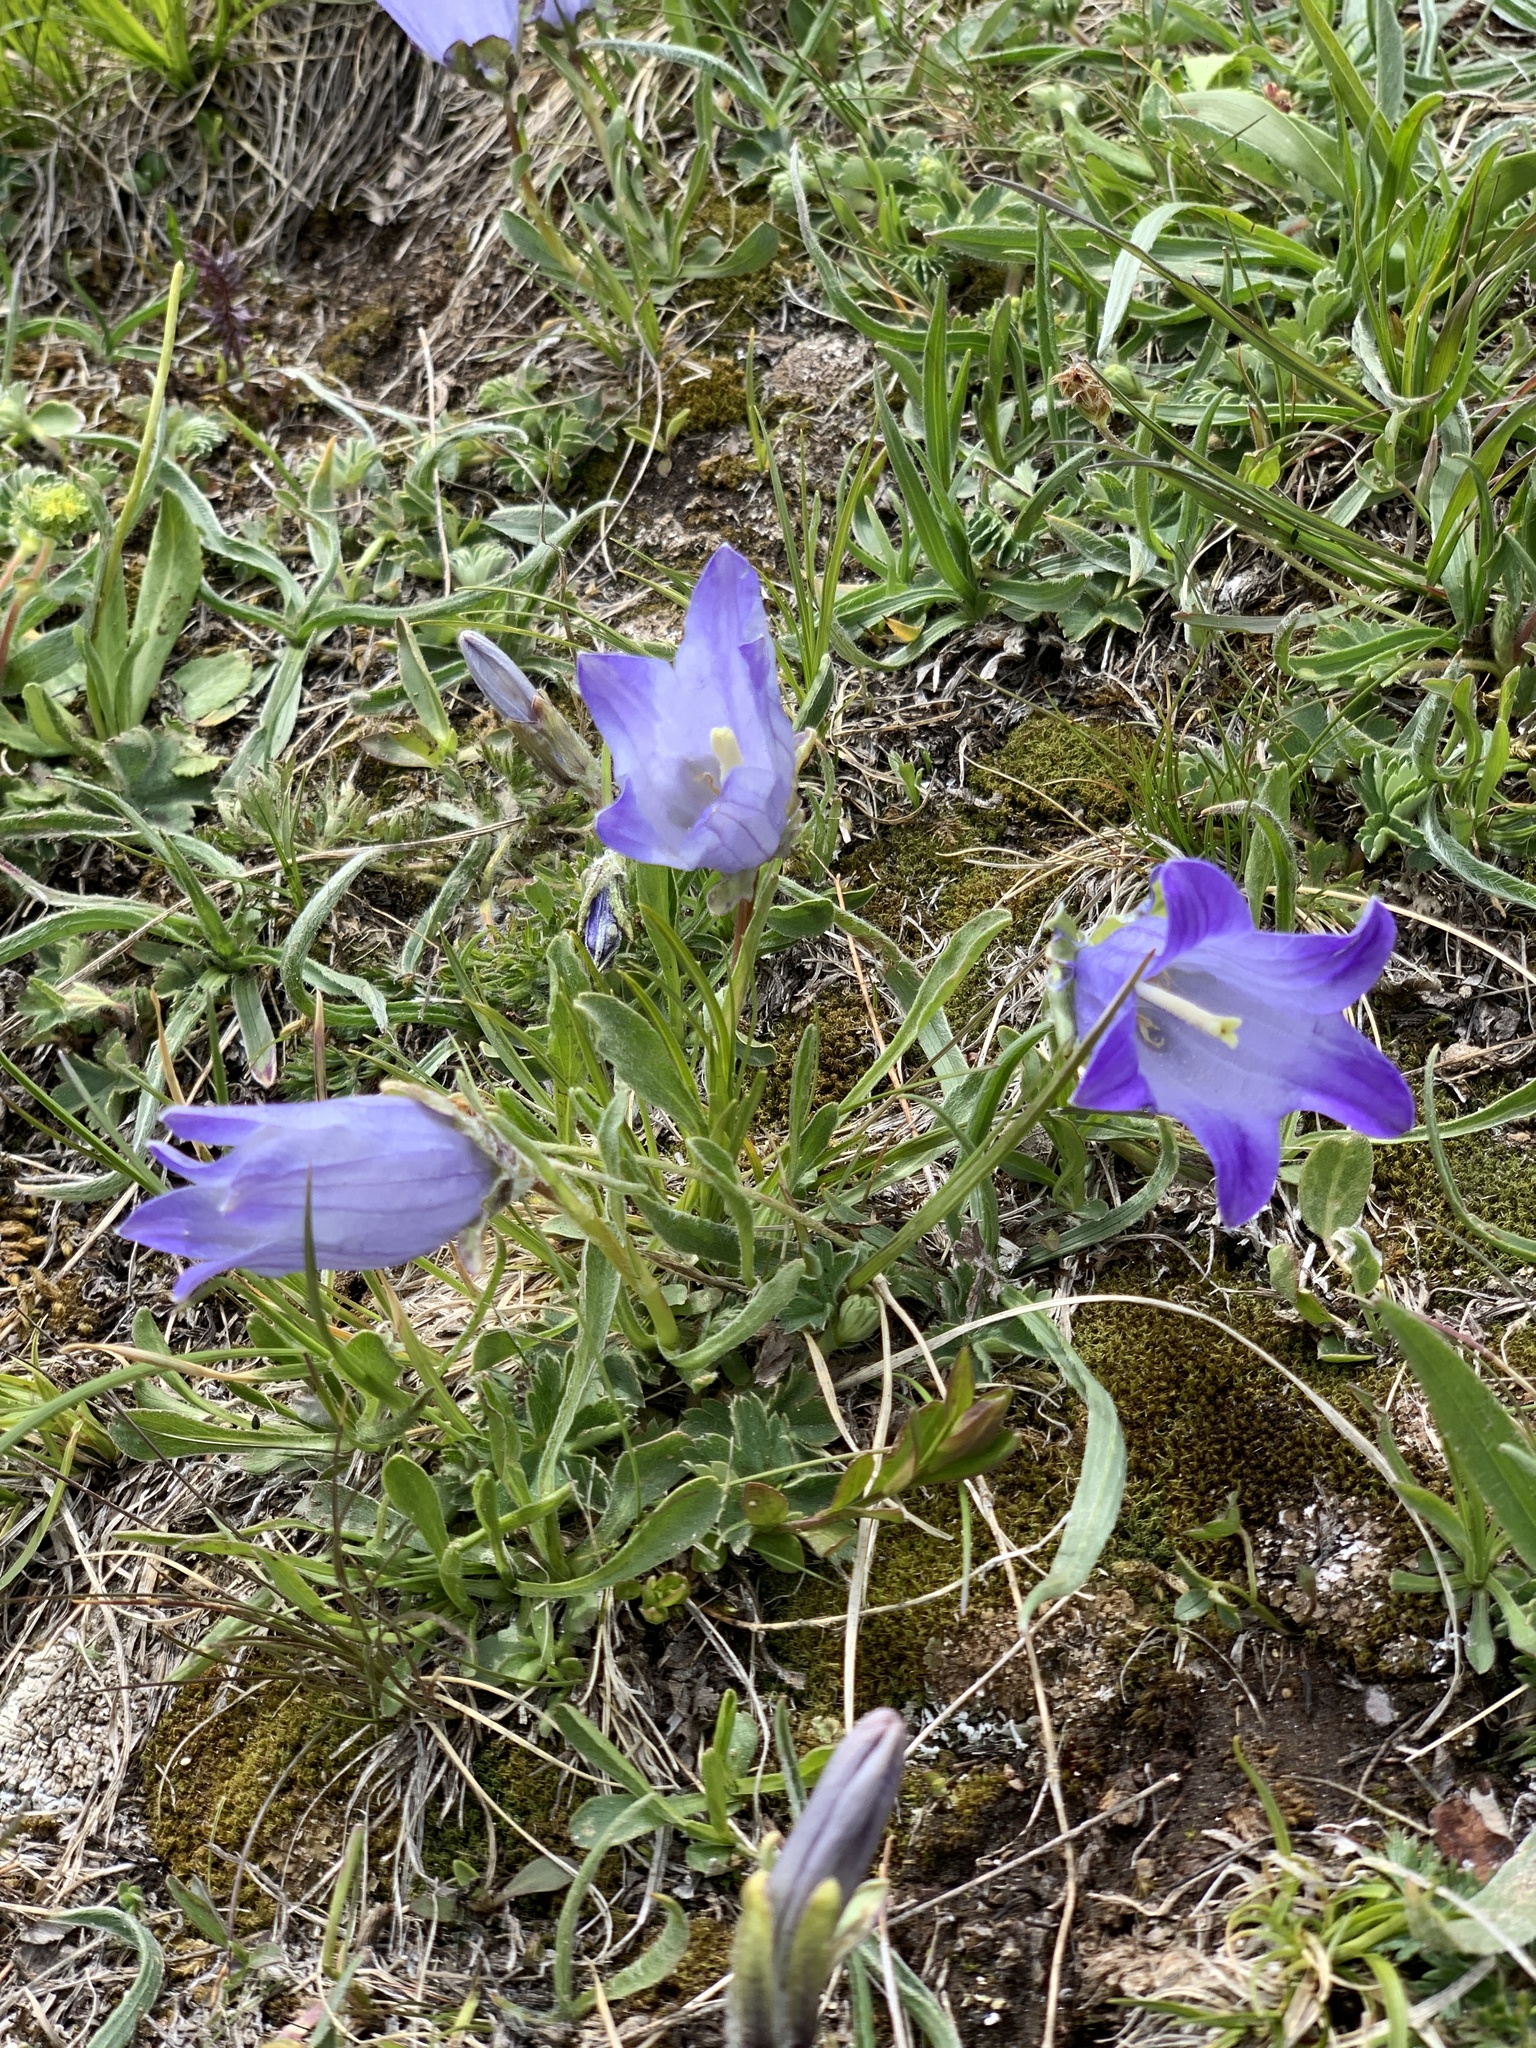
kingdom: Plantae
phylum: Tracheophyta
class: Magnoliopsida
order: Asterales
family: Campanulaceae
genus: Campanula
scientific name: Campanula tridentata
